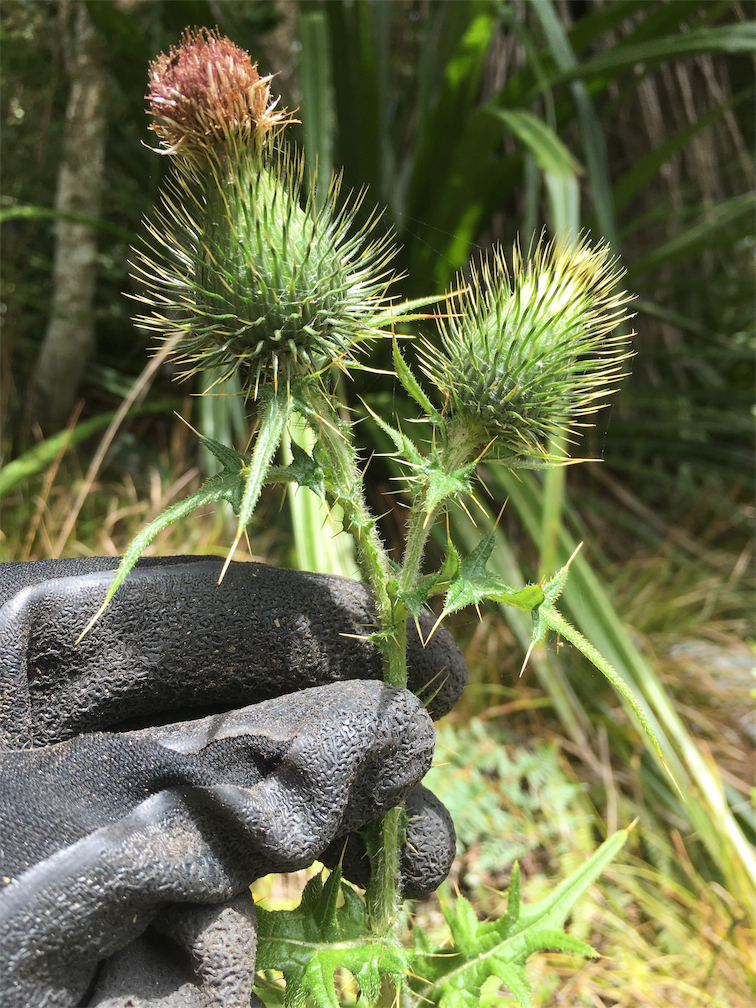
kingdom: Plantae
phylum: Tracheophyta
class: Magnoliopsida
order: Asterales
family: Asteraceae
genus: Cirsium
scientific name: Cirsium vulgare
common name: Bull thistle
